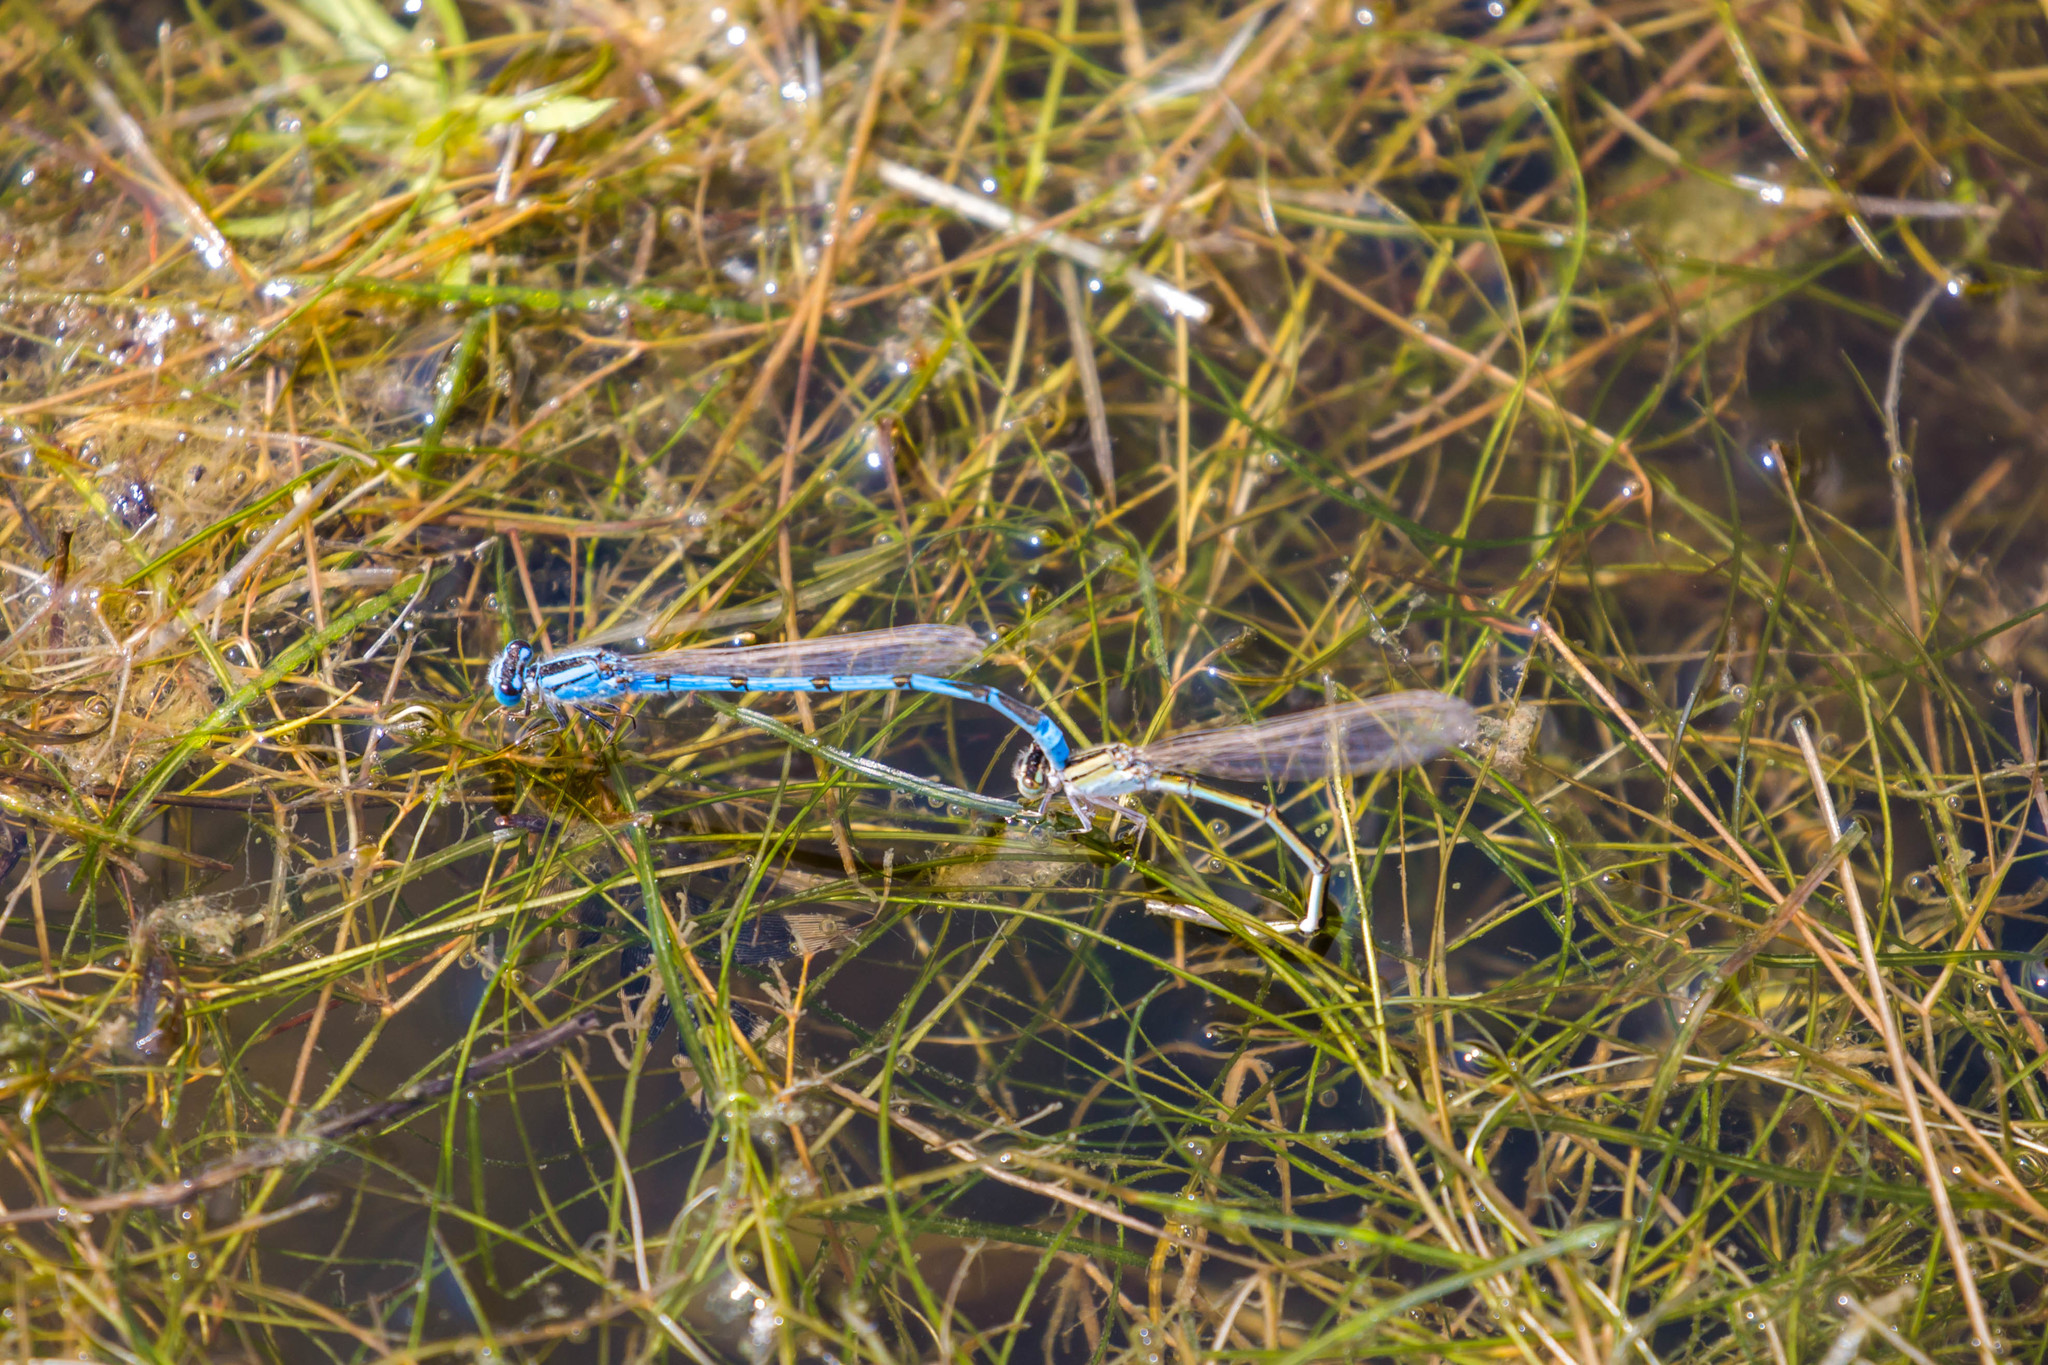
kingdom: Animalia
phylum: Arthropoda
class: Insecta
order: Odonata
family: Coenagrionidae
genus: Enallagma
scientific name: Enallagma civile
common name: Damselfly
